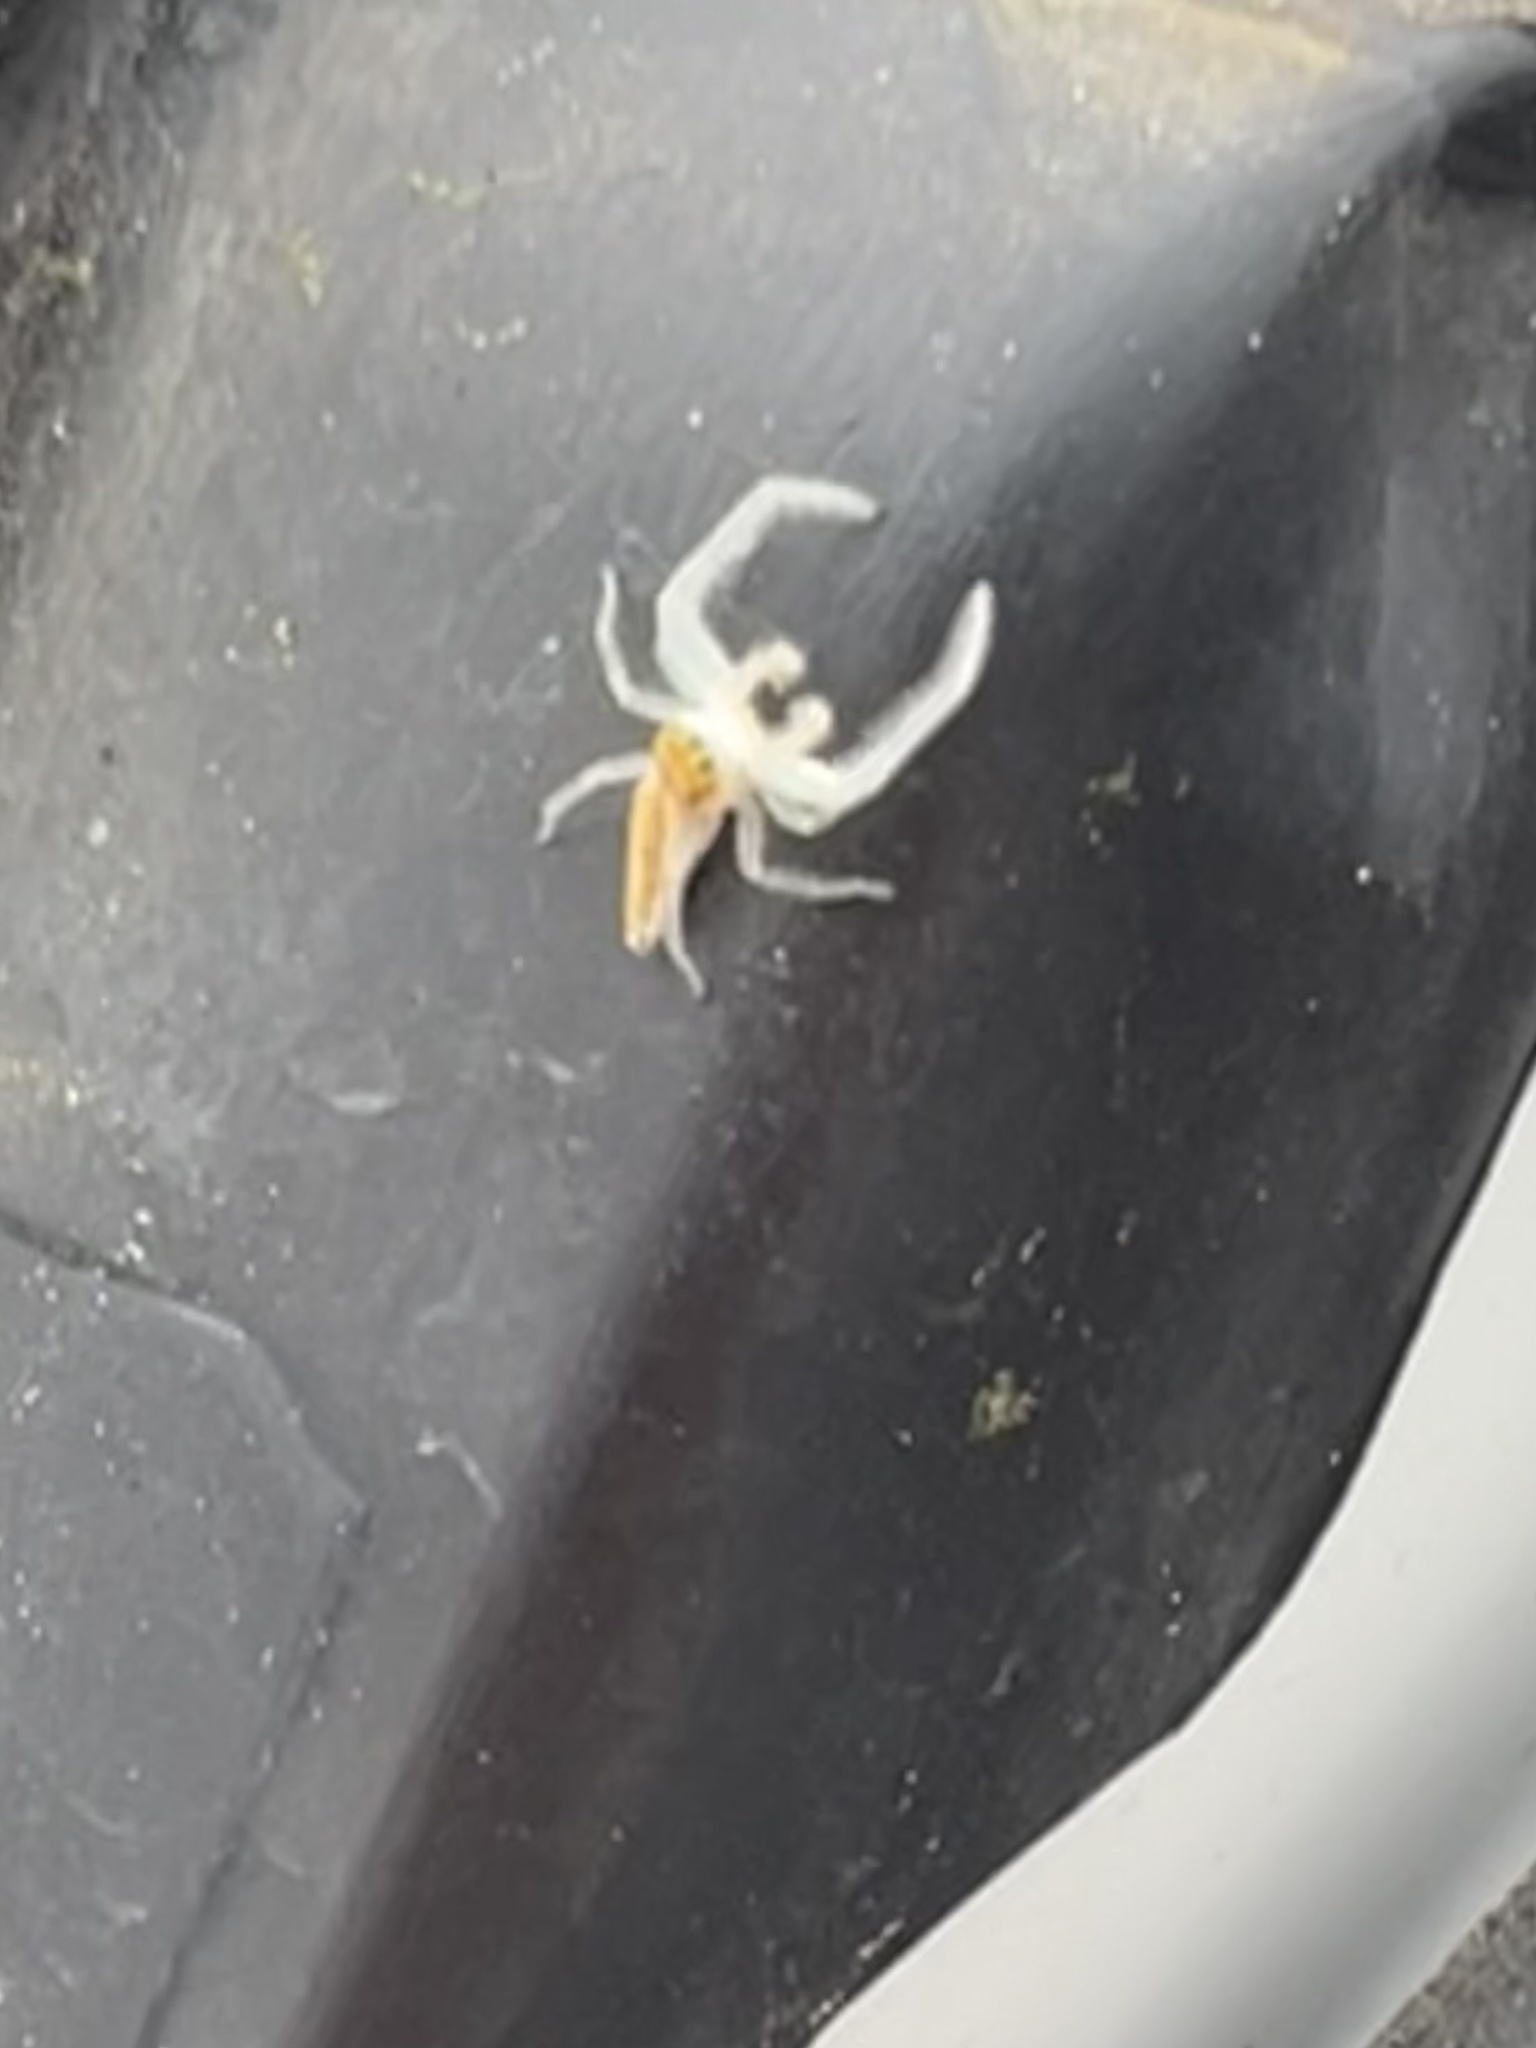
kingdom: Animalia
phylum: Arthropoda
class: Arachnida
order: Araneae
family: Salticidae
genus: Hentzia
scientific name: Hentzia mitrata
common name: White-jawed jumping spider
